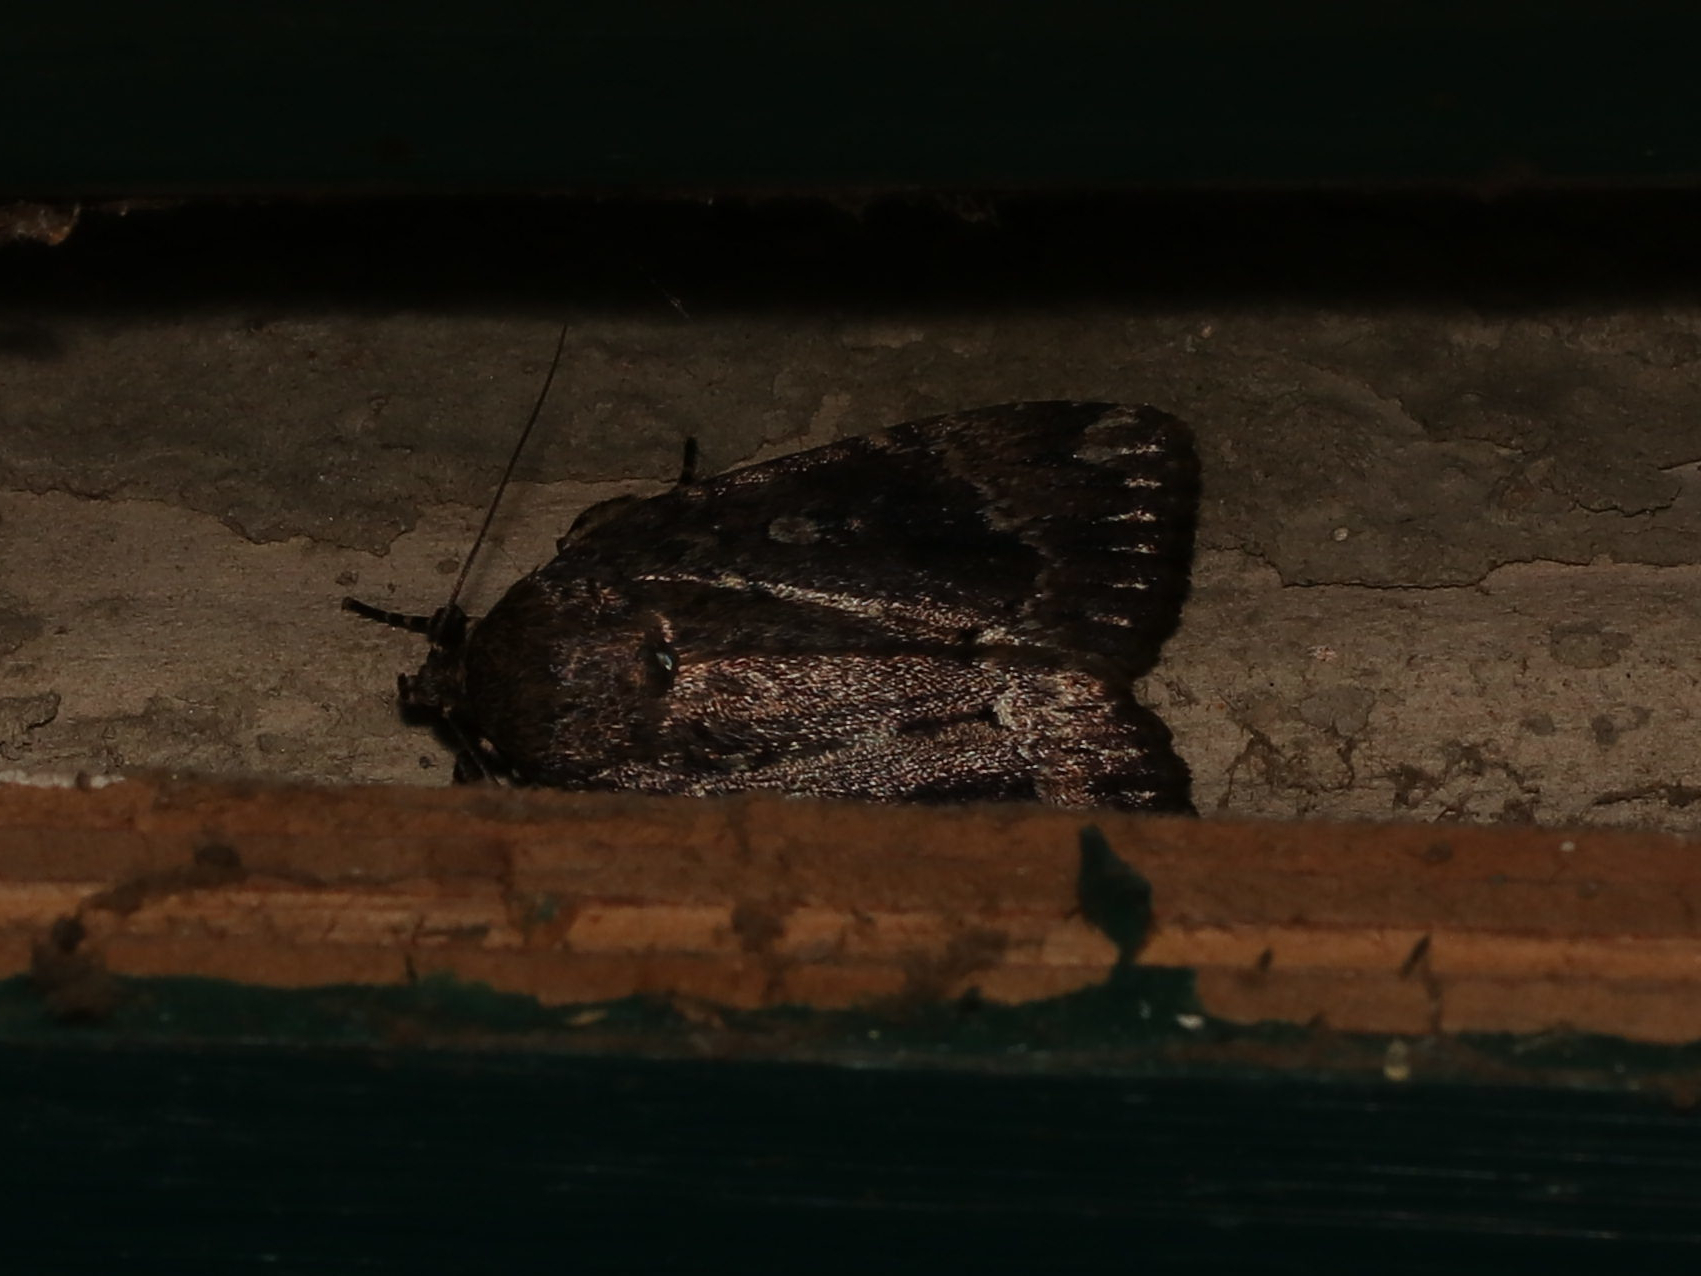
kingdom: Animalia
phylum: Arthropoda
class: Insecta
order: Lepidoptera
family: Noctuidae
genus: Amphipyra
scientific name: Amphipyra pyramidoides
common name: American copper underwing
